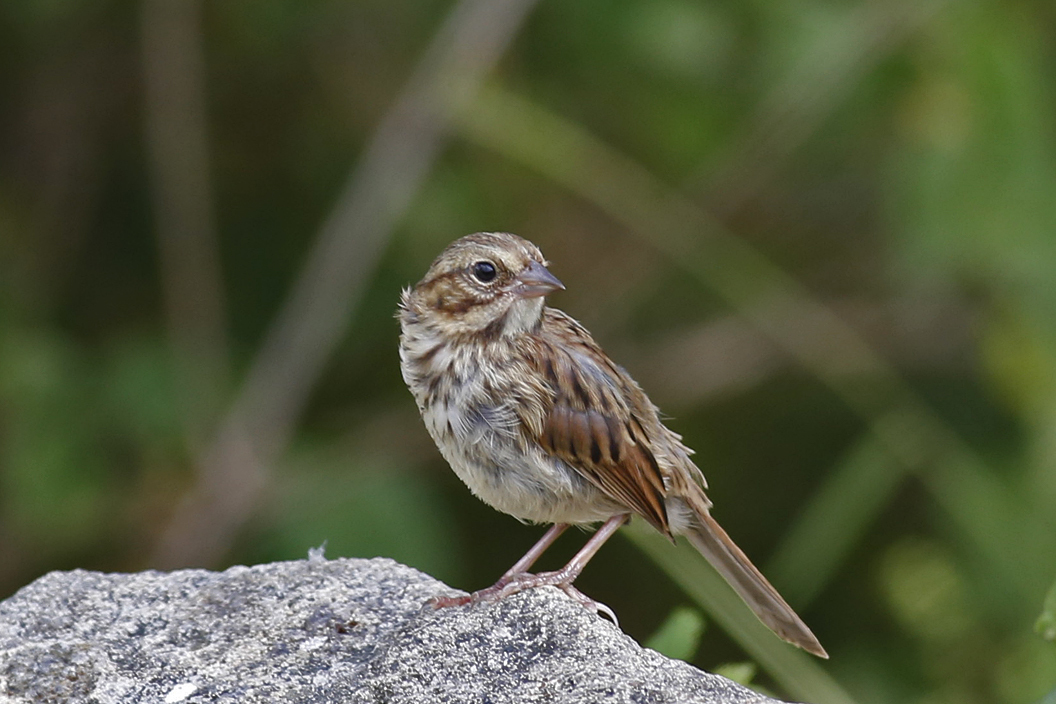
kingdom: Animalia
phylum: Chordata
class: Aves
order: Passeriformes
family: Passerellidae
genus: Melospiza
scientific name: Melospiza melodia
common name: Song sparrow
